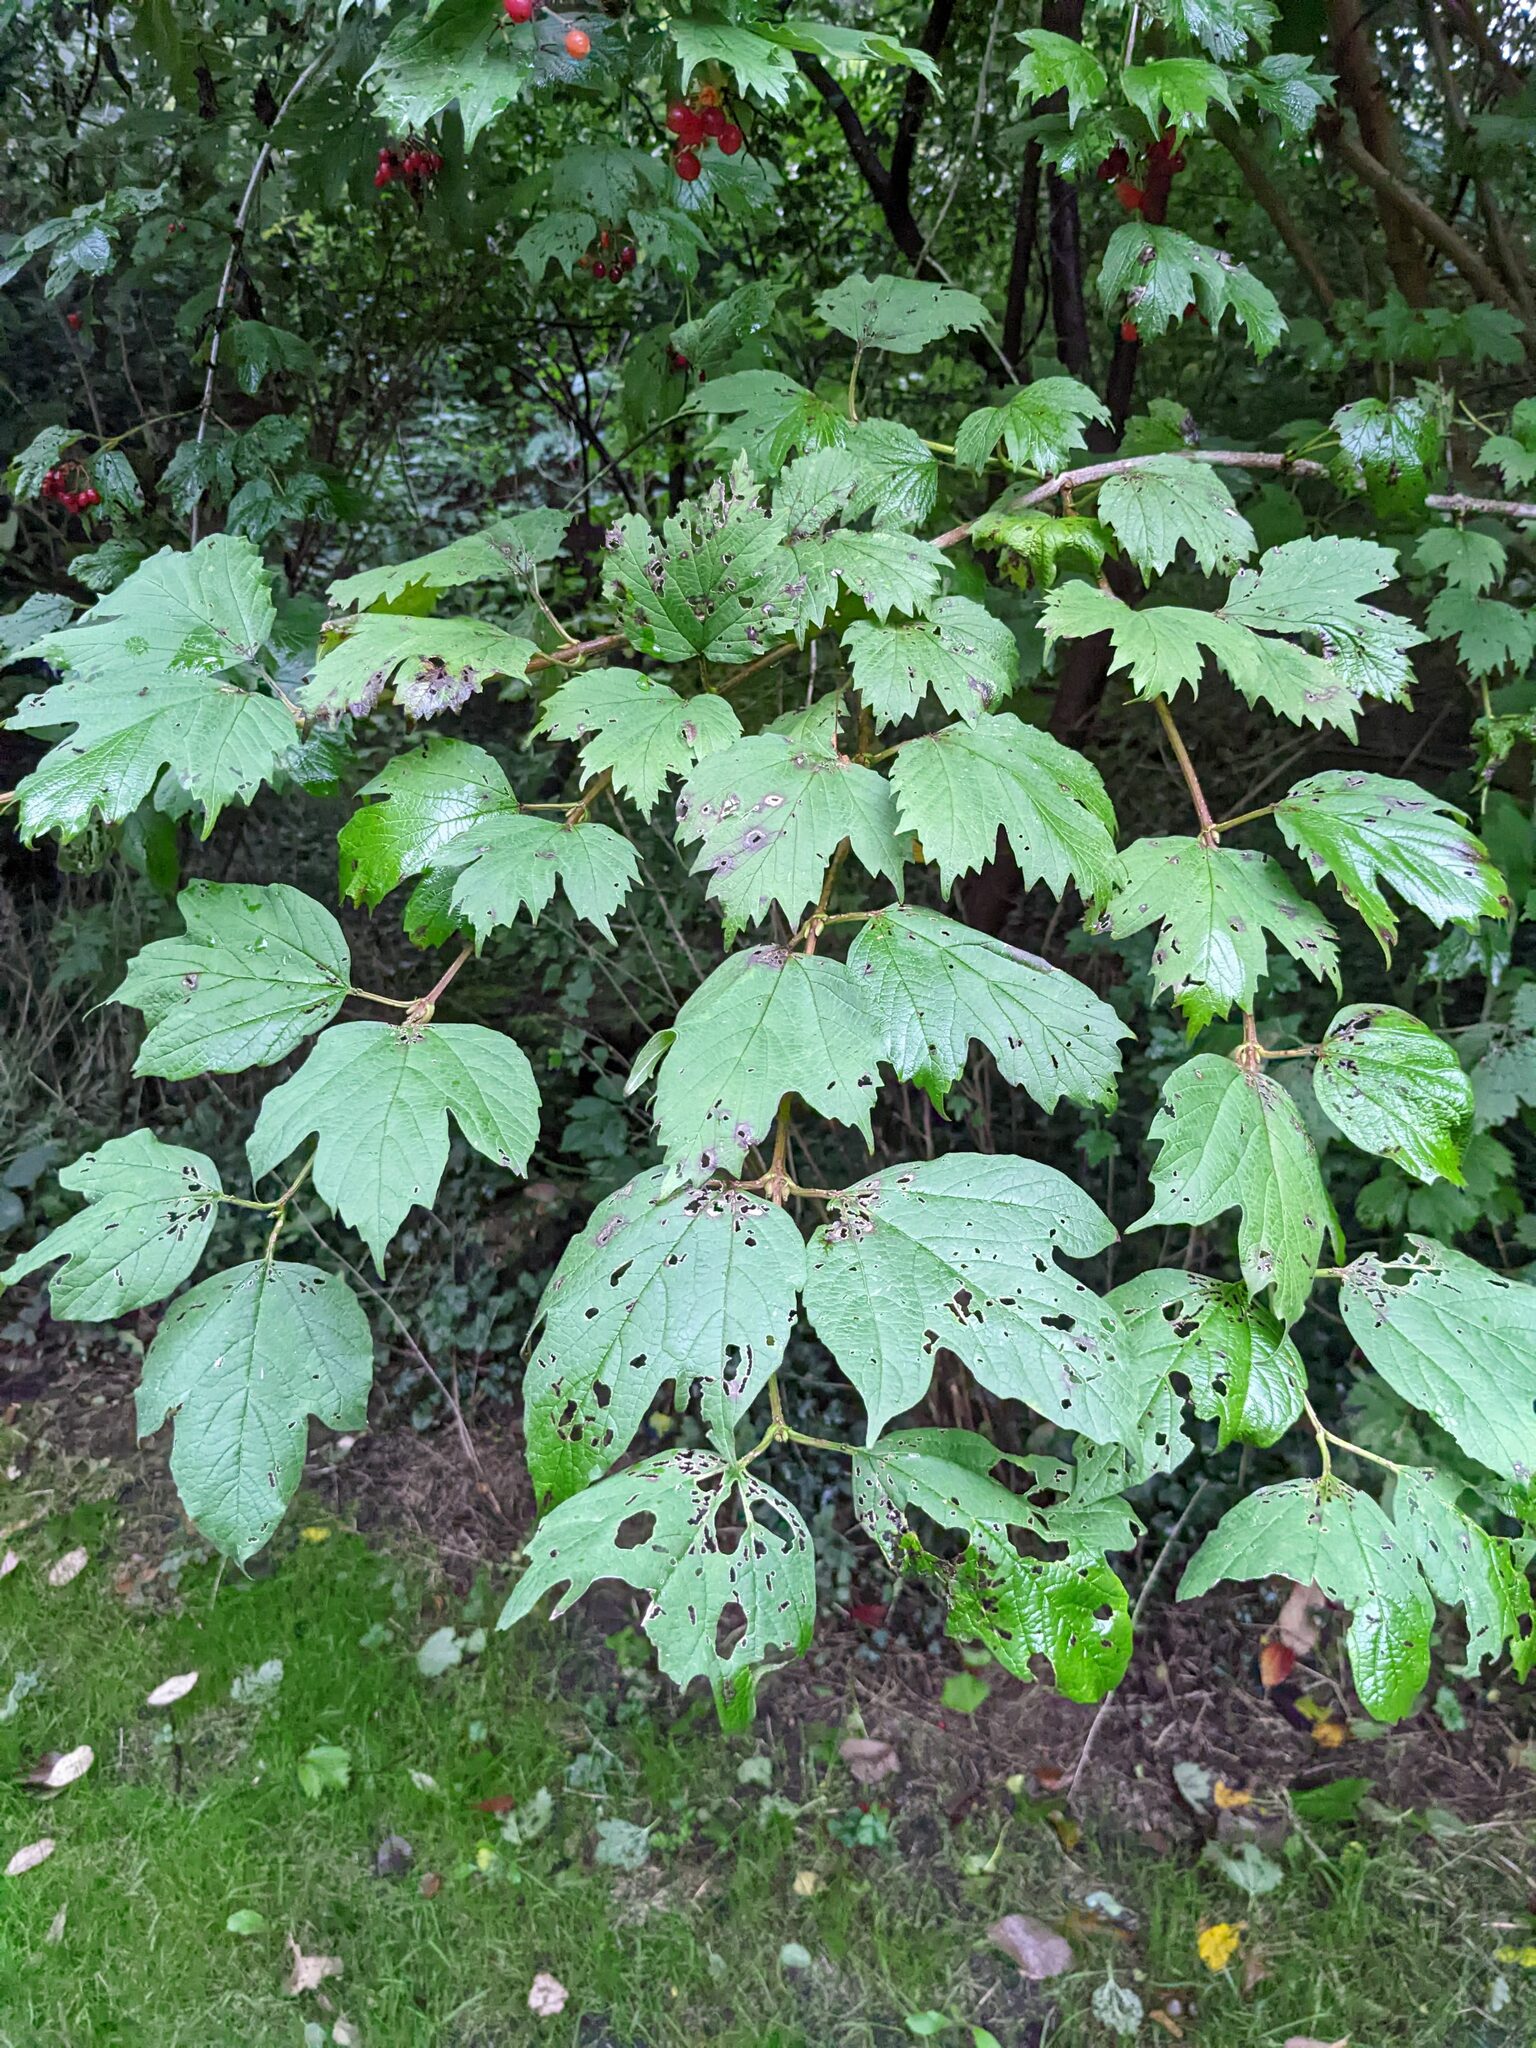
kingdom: Plantae
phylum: Tracheophyta
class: Magnoliopsida
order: Dipsacales
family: Viburnaceae
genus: Viburnum
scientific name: Viburnum opulus
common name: Guelder-rose
